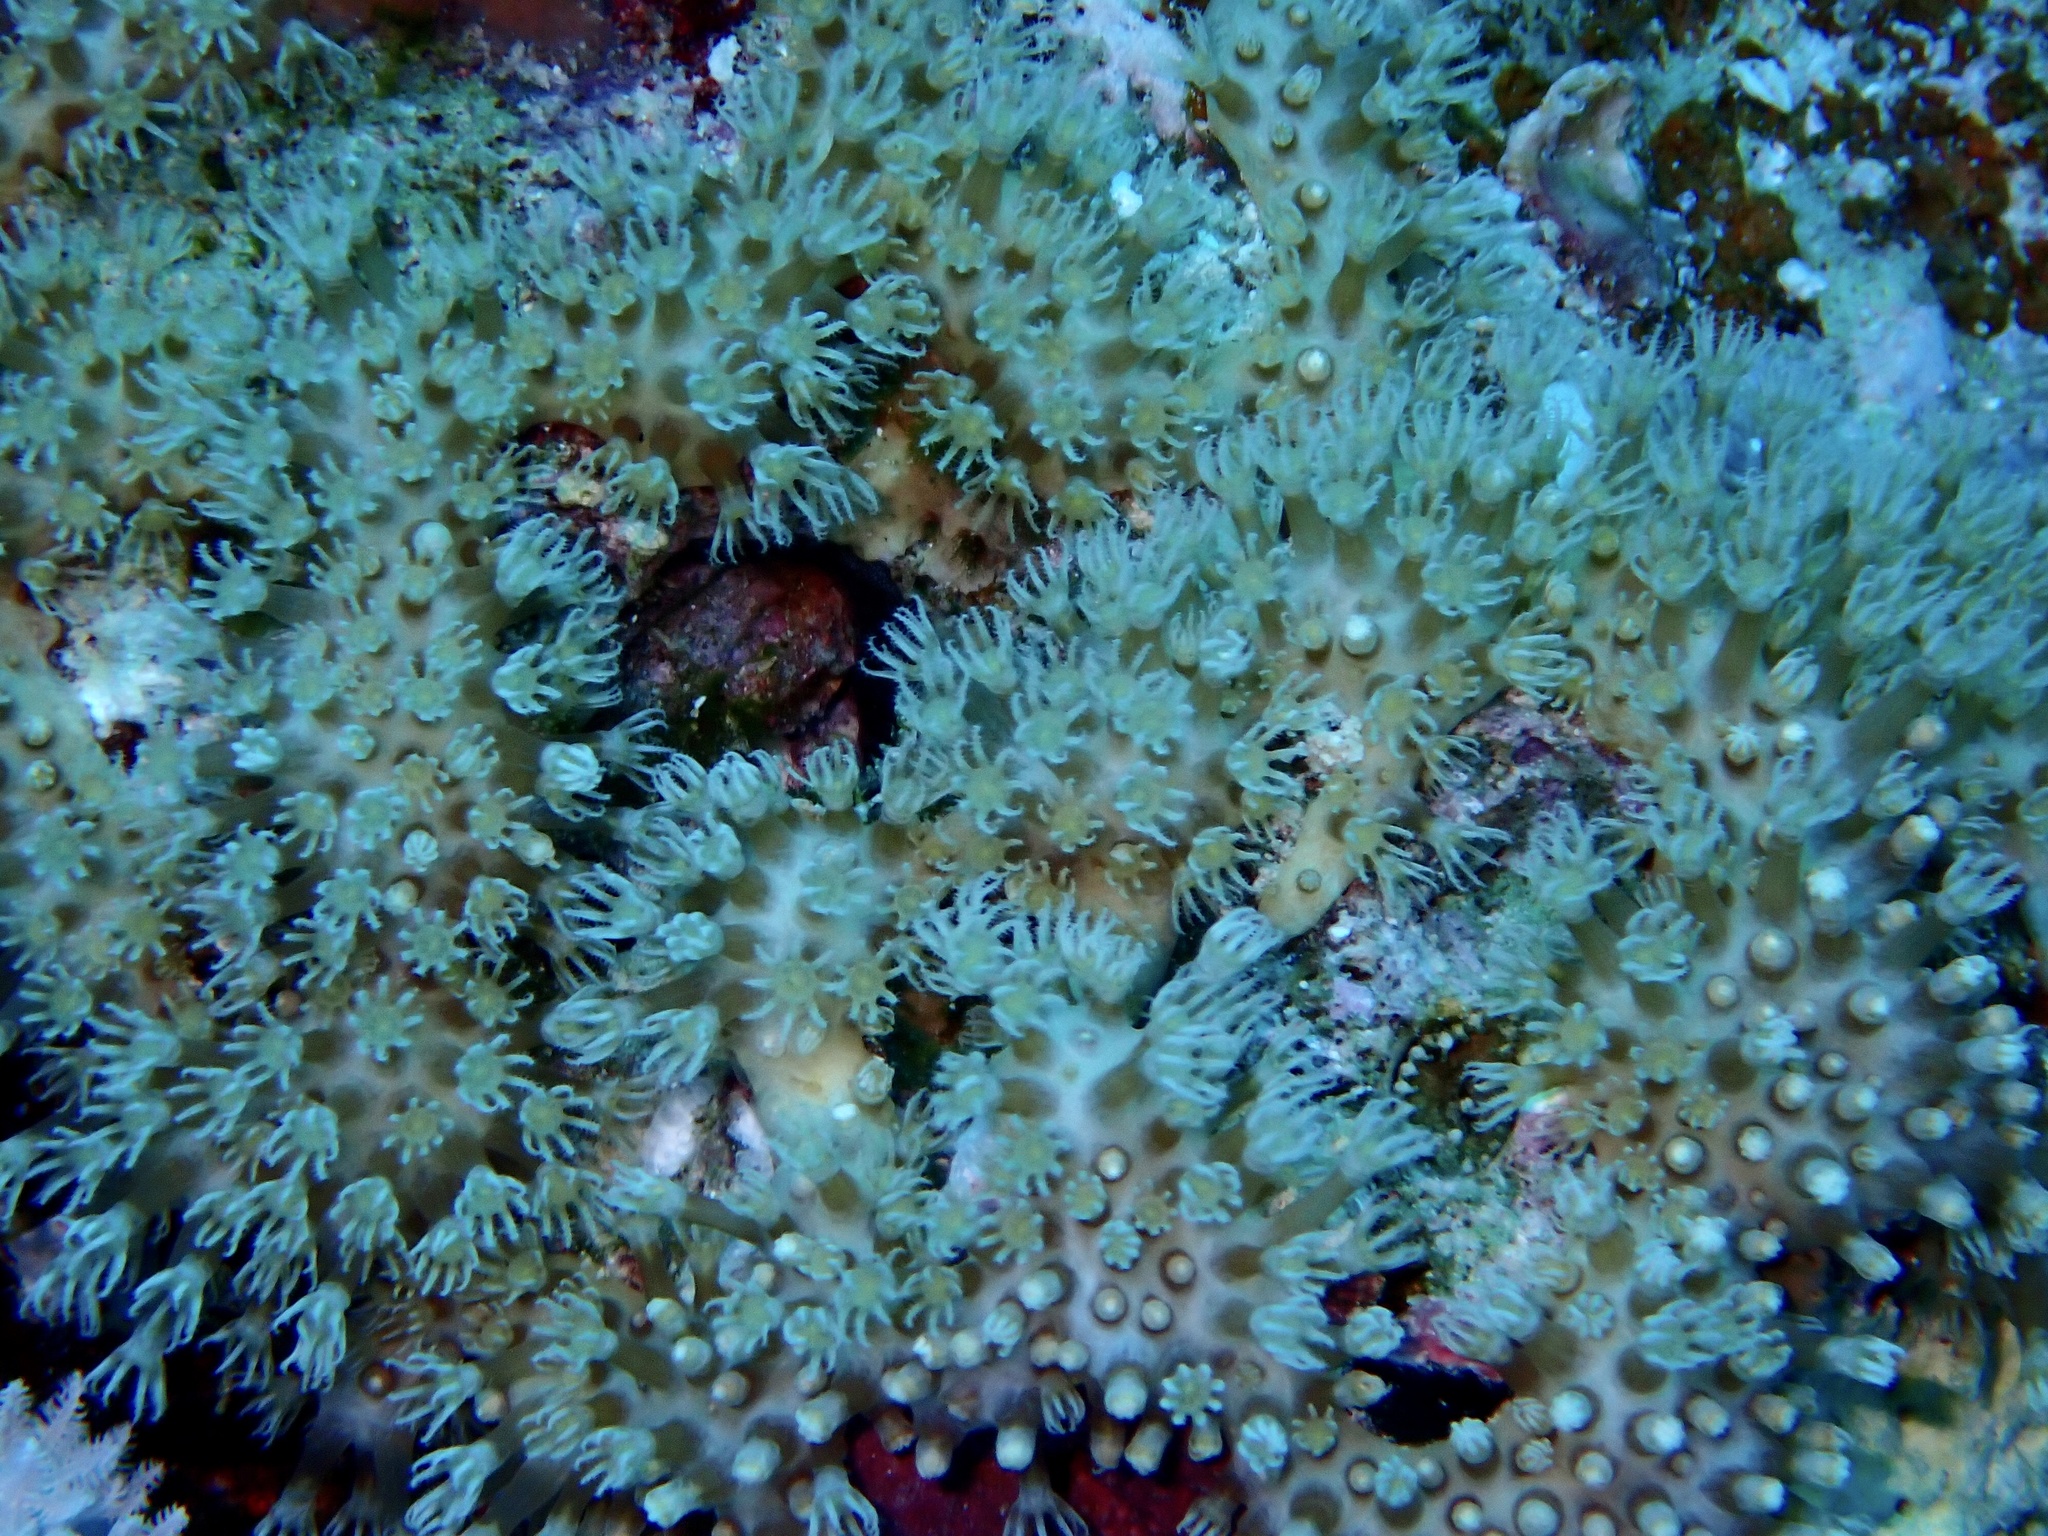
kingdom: Animalia
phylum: Cnidaria
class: Anthozoa
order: Malacalcyonacea
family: Lemnaliadae
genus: Rhytisma
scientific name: Rhytisma fulvum
